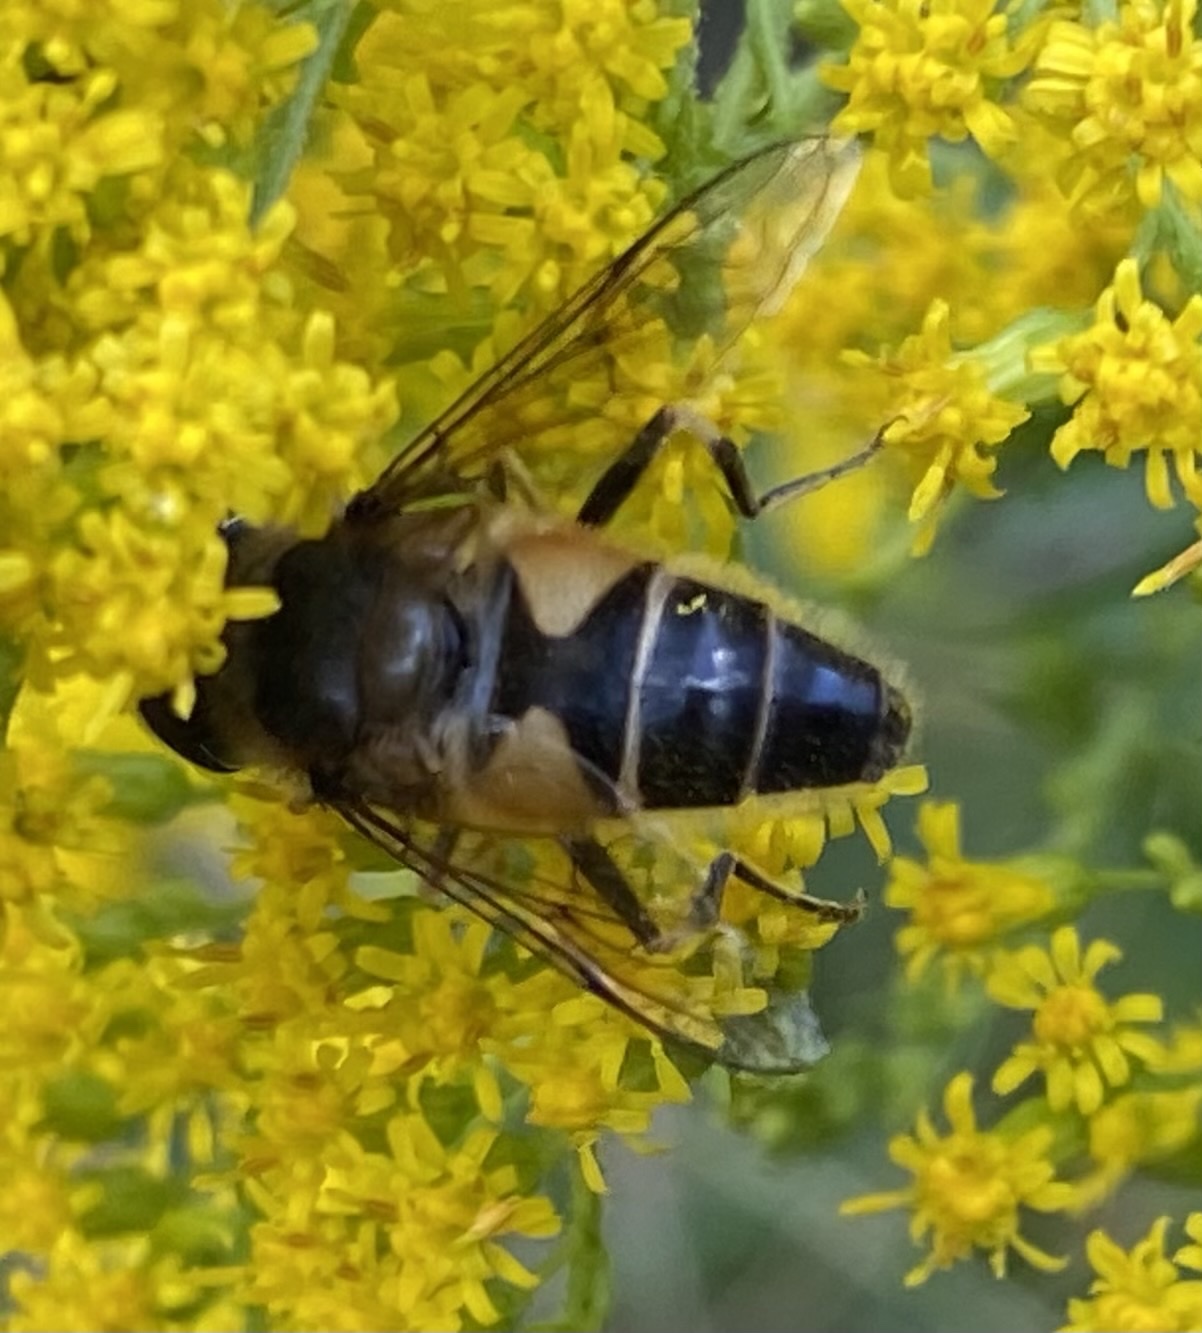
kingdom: Animalia
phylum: Arthropoda
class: Insecta
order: Diptera
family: Syrphidae
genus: Eristalis
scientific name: Eristalis pertinax
